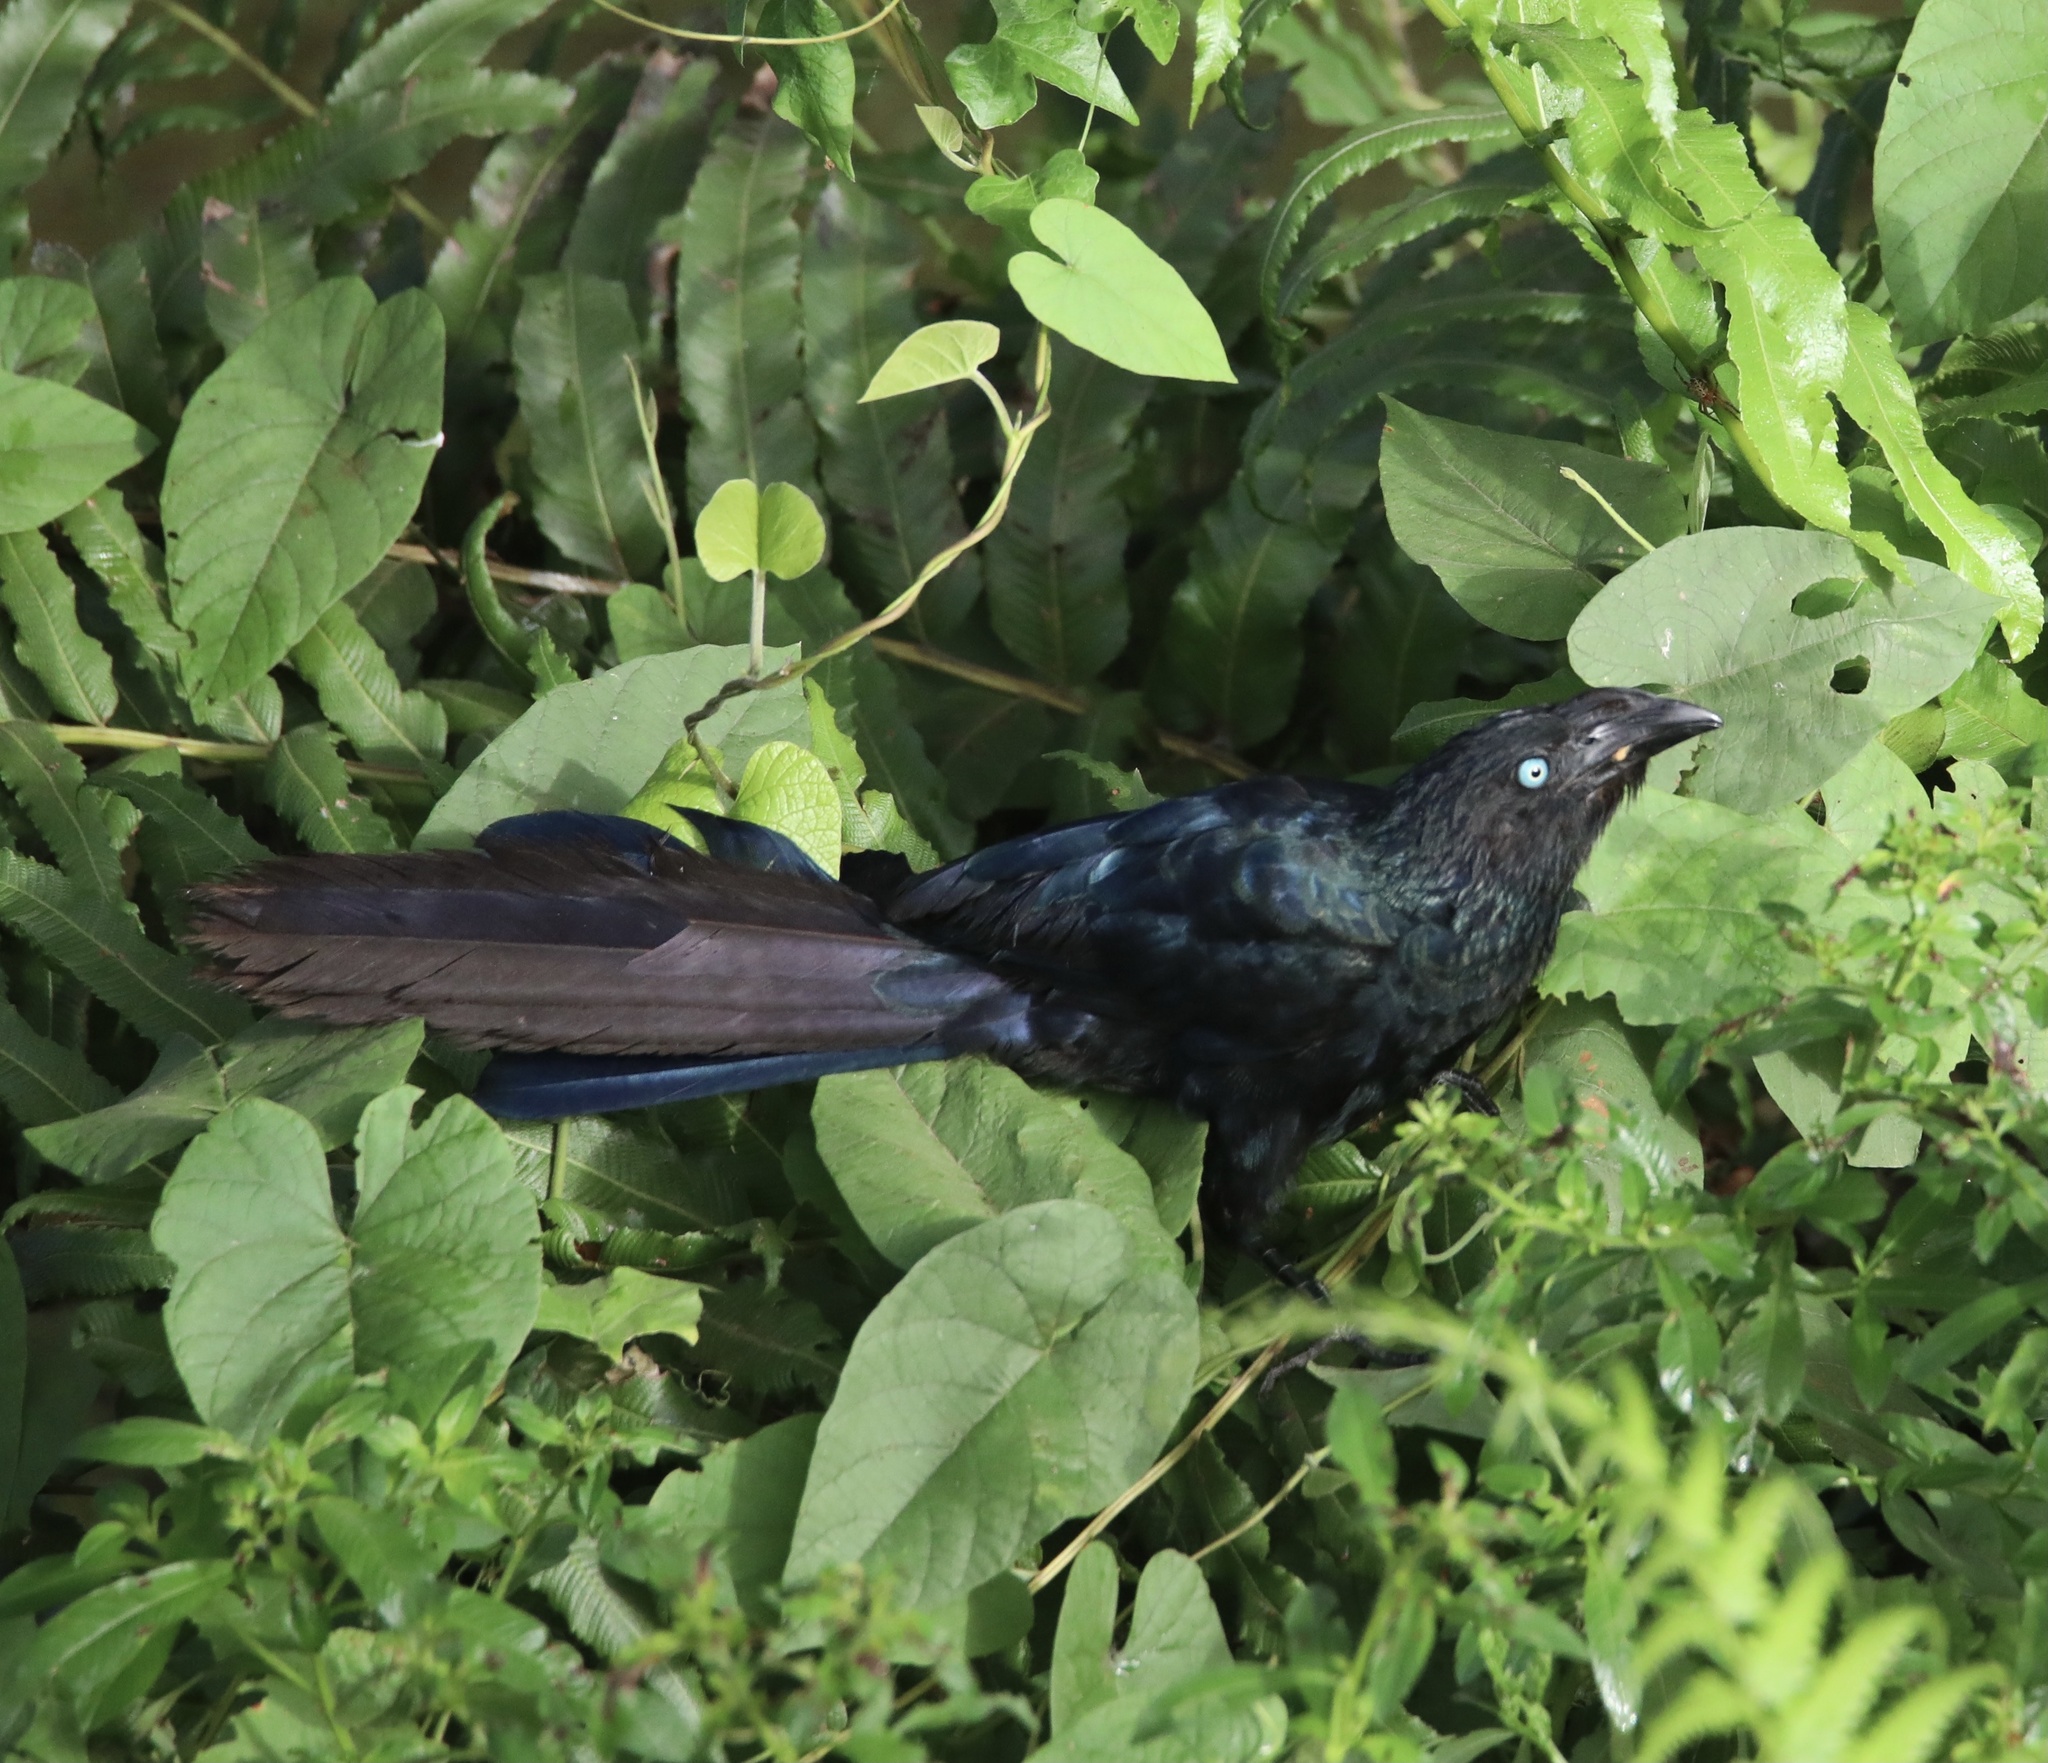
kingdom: Animalia
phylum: Chordata
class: Aves
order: Cuculiformes
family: Cuculidae
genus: Crotophaga
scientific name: Crotophaga major
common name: Greater ani
